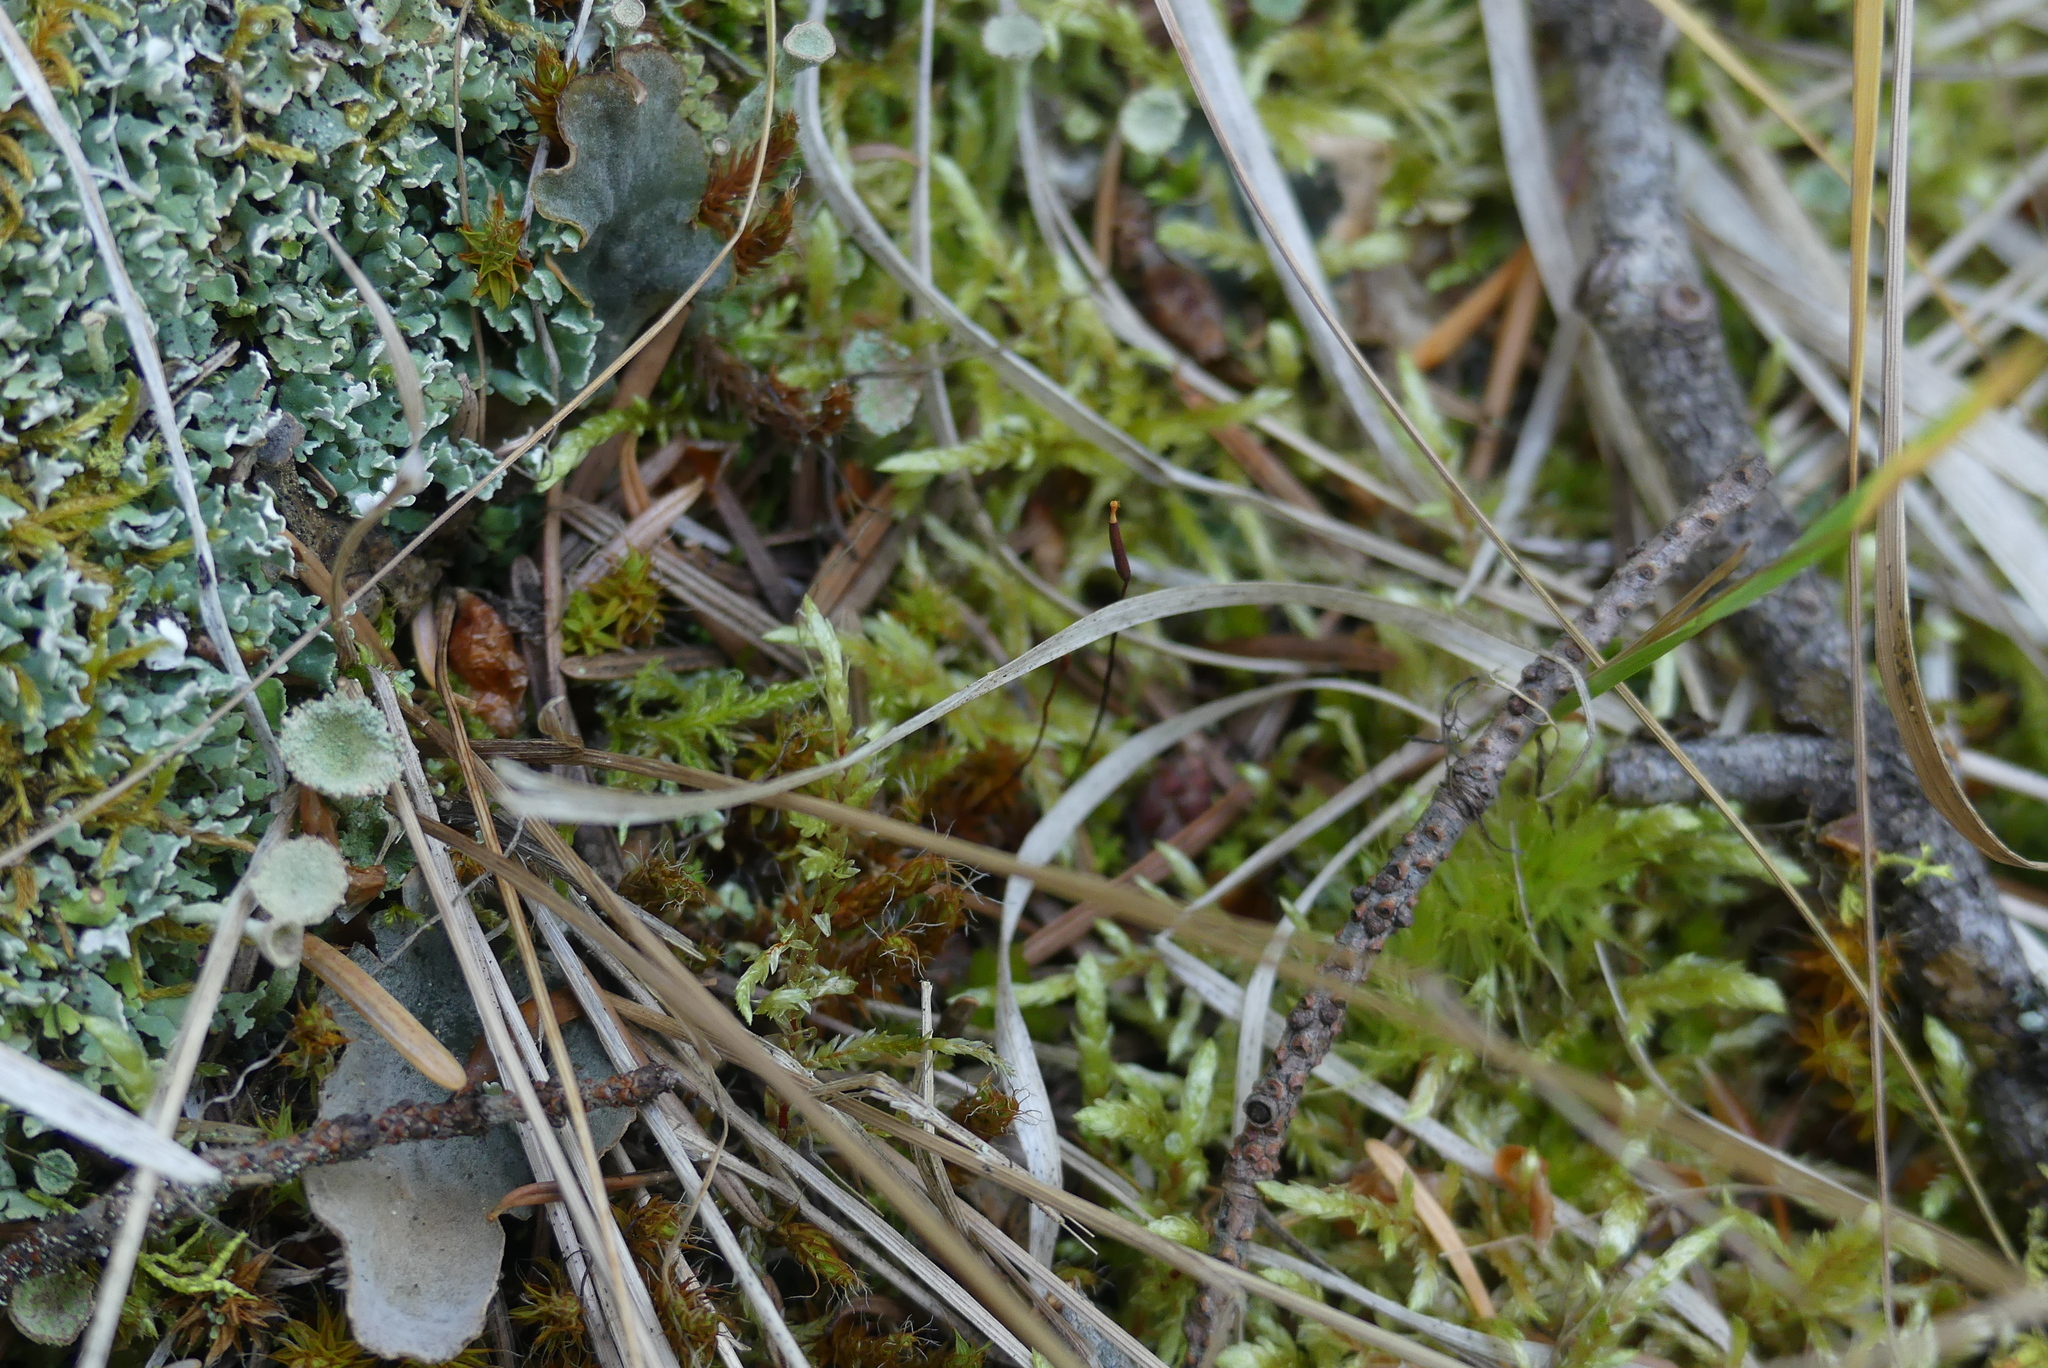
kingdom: Plantae
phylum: Bryophyta
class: Bryopsida
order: Hypnales
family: Hylocomiaceae
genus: Pleurozium
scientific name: Pleurozium schreberi
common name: Red-stemmed feather moss
